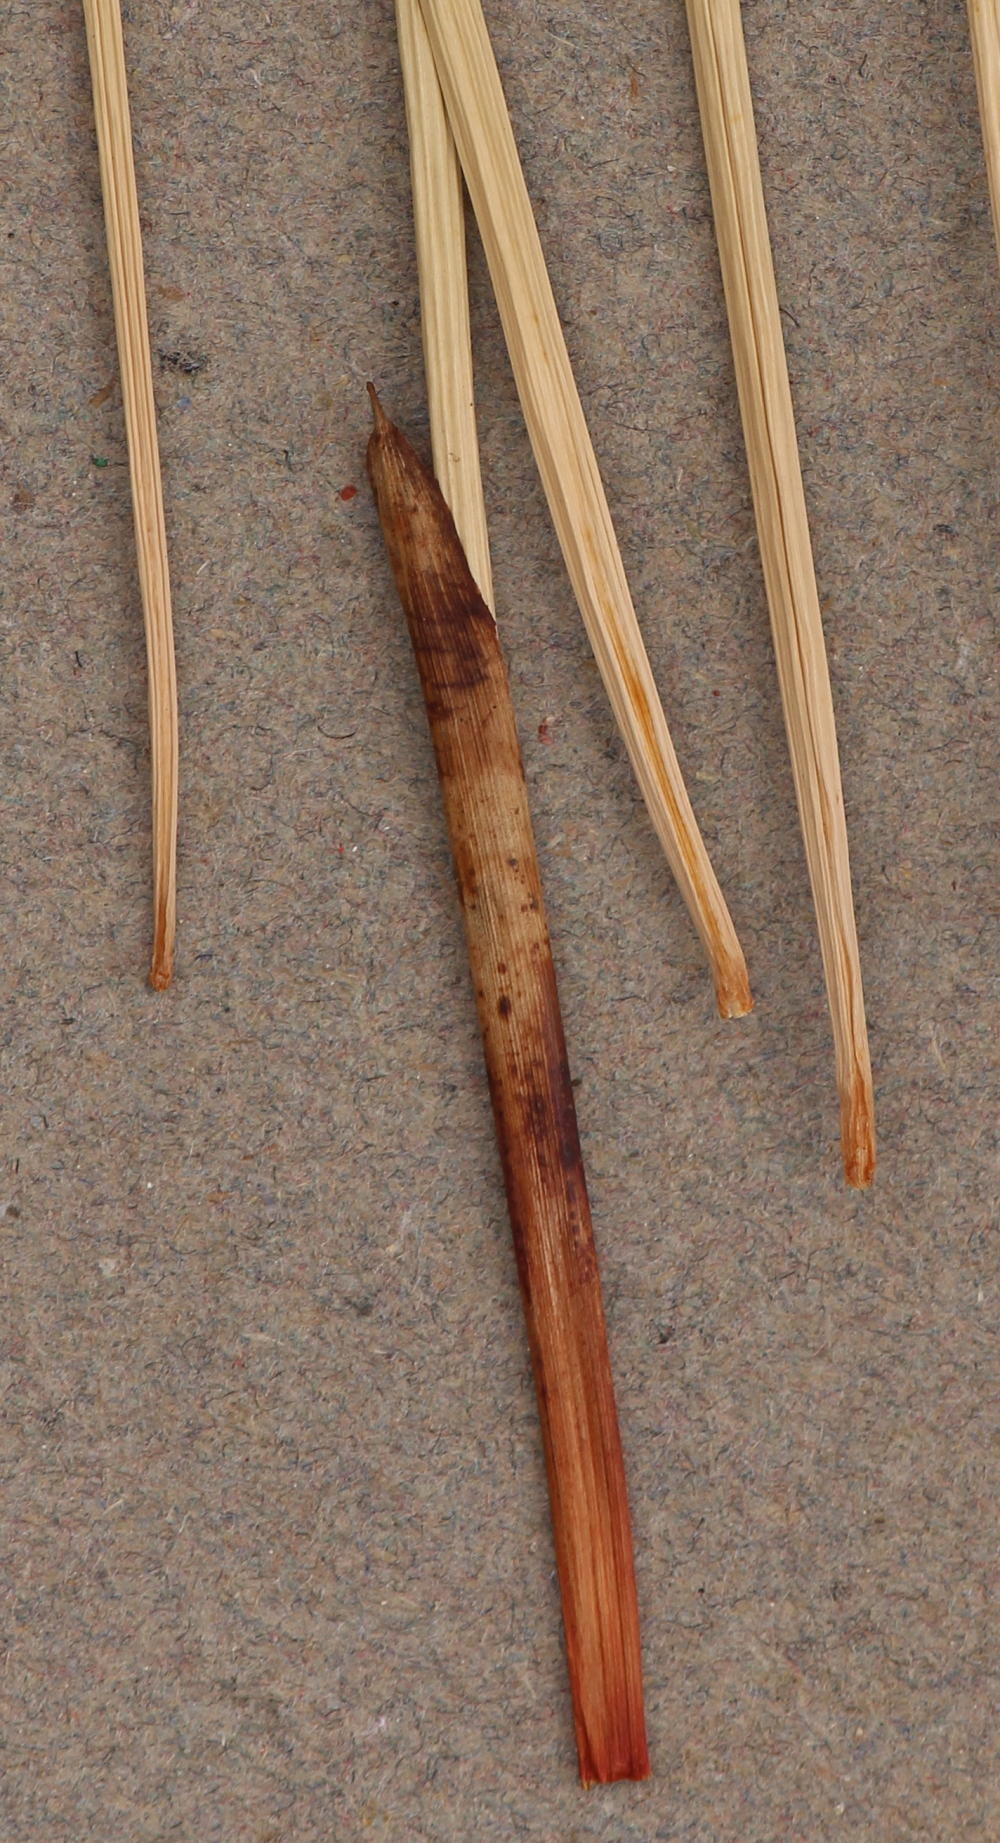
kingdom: Plantae
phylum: Tracheophyta
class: Liliopsida
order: Poales
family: Cyperaceae
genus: Cyperus
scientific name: Cyperus laevigatus
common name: Smooth flat sedge
